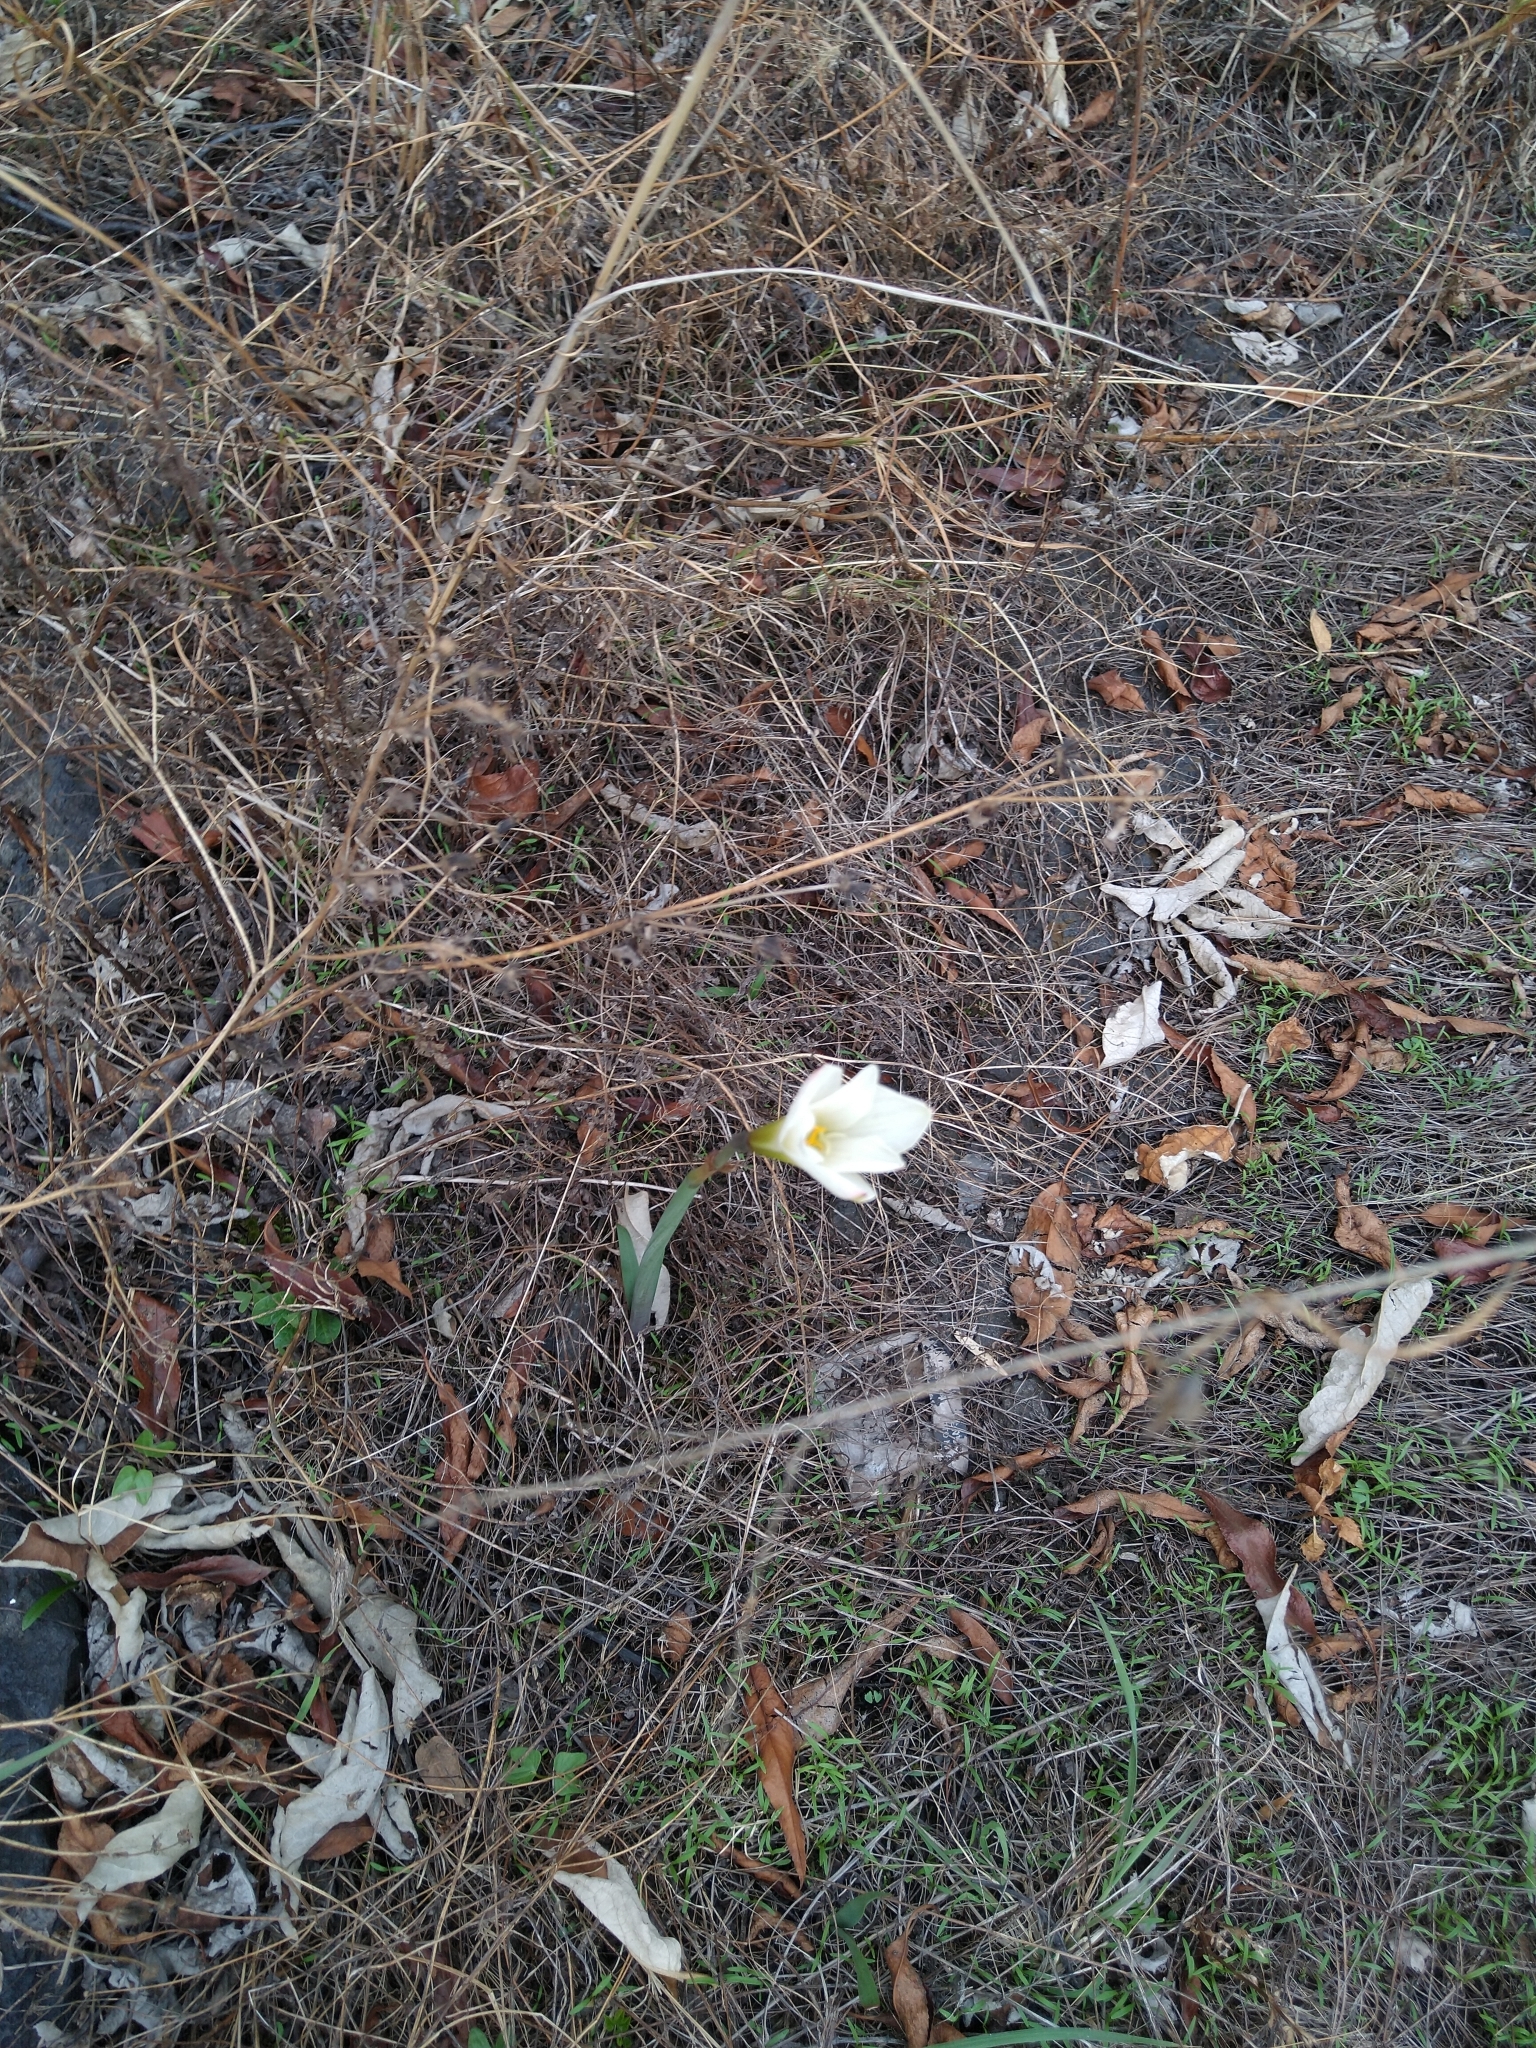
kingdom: Plantae
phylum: Tracheophyta
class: Liliopsida
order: Asparagales
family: Amaryllidaceae
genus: Zephyranthes
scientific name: Zephyranthes alba
